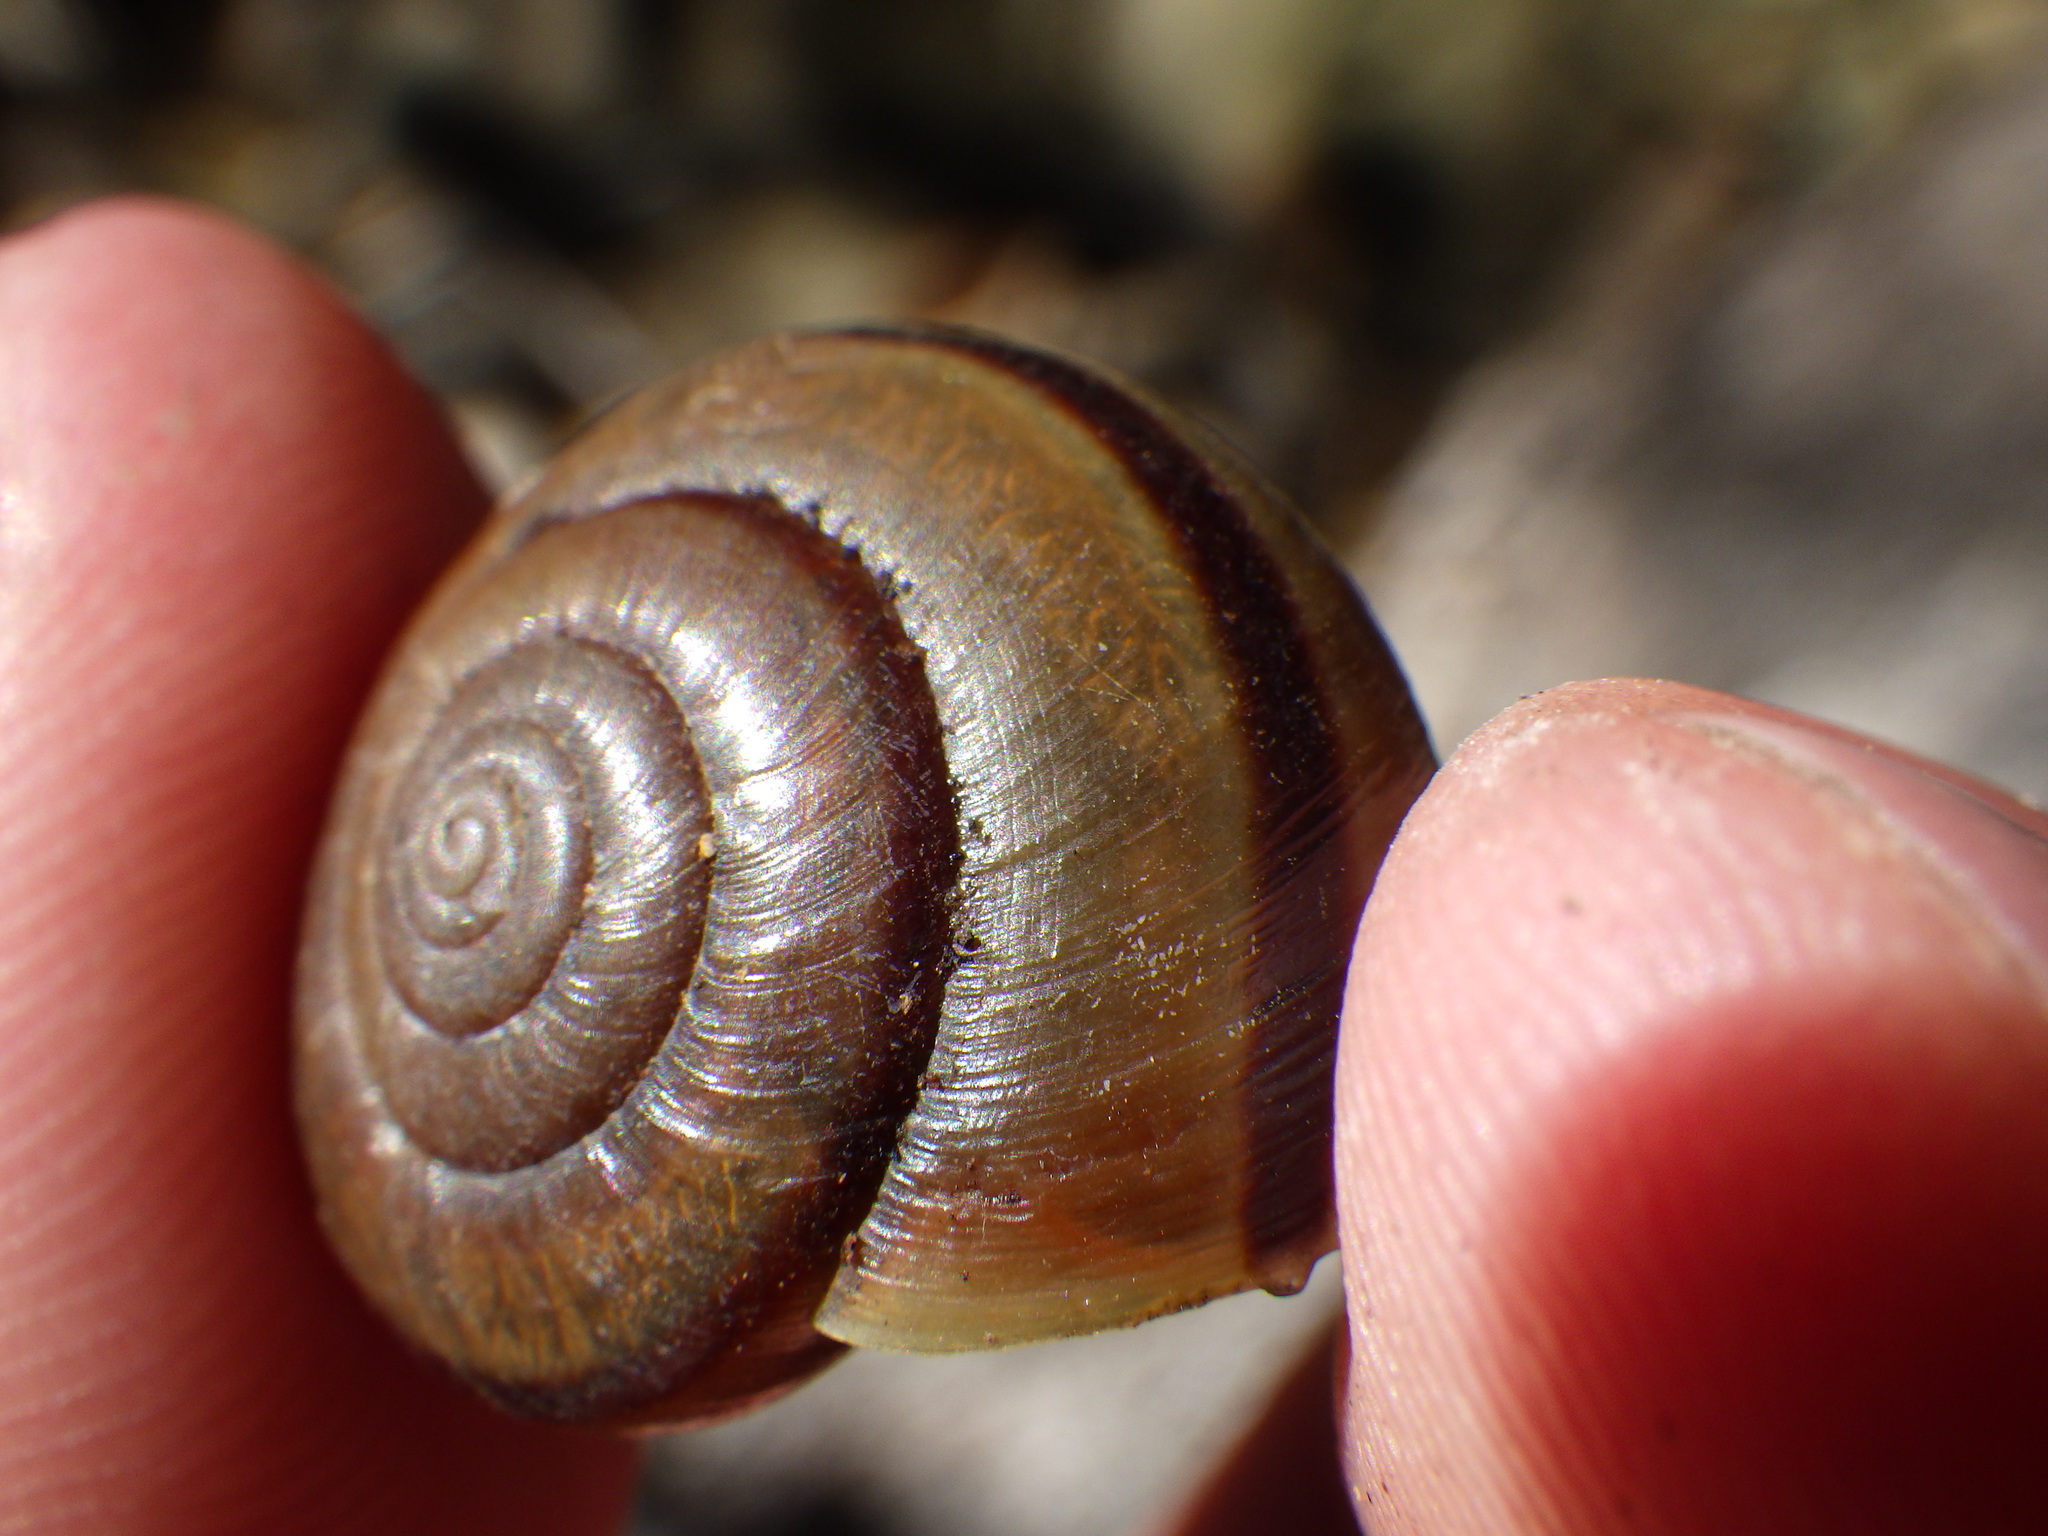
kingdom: Animalia
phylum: Mollusca
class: Gastropoda
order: Stylommatophora
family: Xanthonychidae
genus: Helminthoglypta
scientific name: Helminthoglypta traskii
